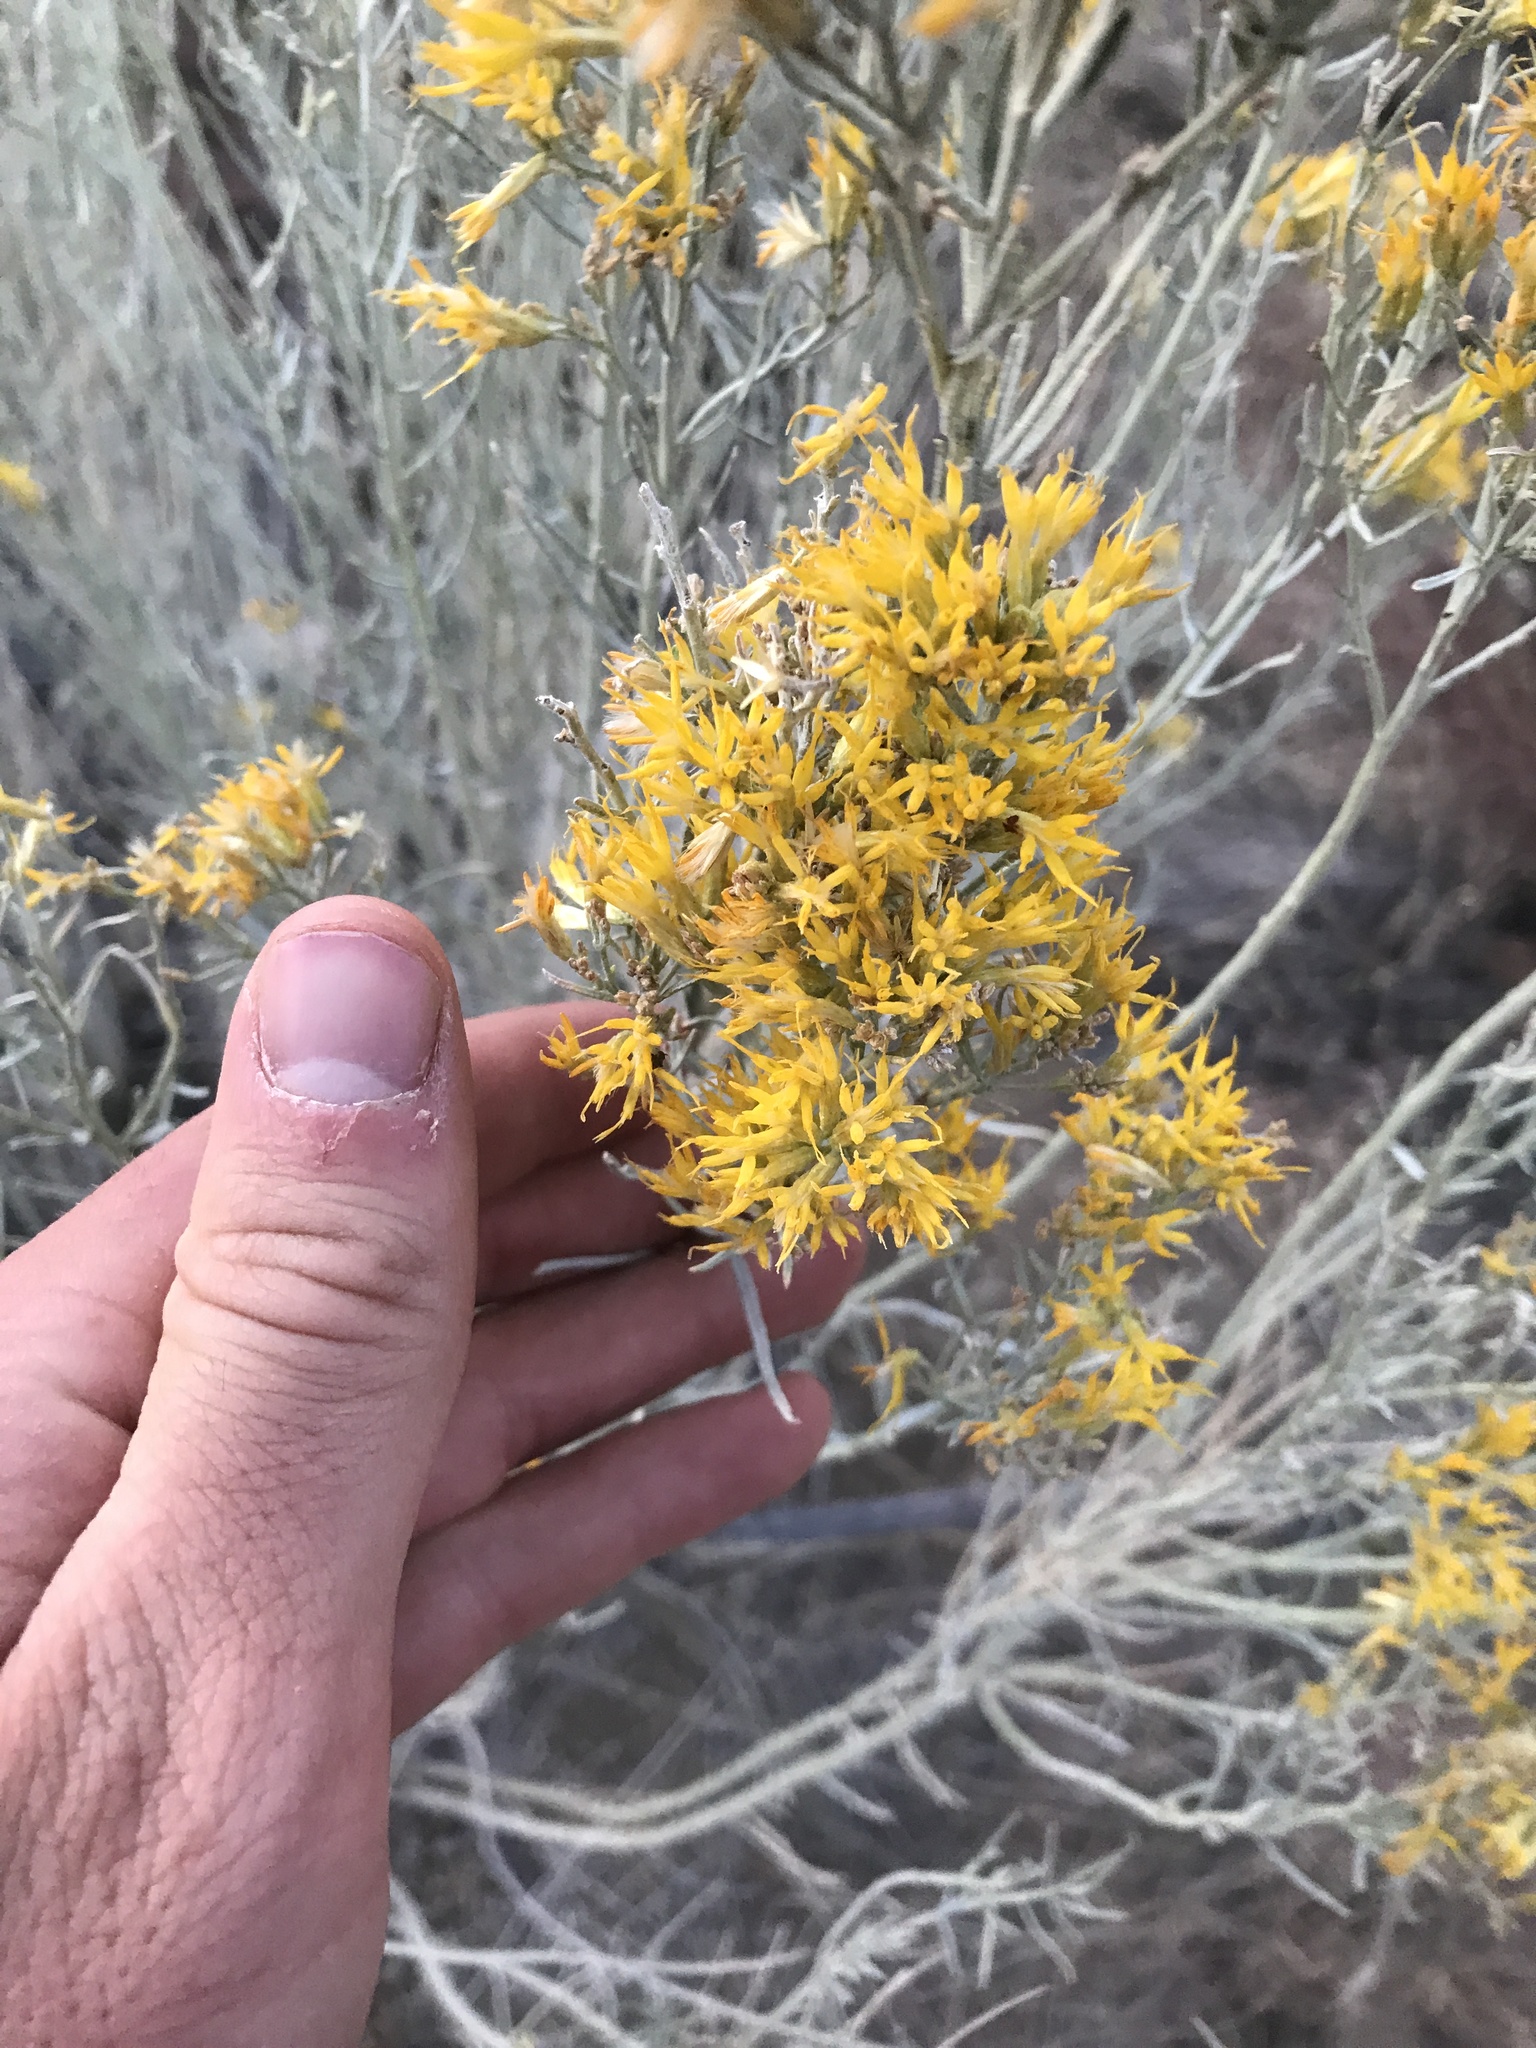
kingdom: Plantae
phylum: Tracheophyta
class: Magnoliopsida
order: Asterales
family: Asteraceae
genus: Ericameria
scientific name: Ericameria nauseosa
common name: Rubber rabbitbrush
